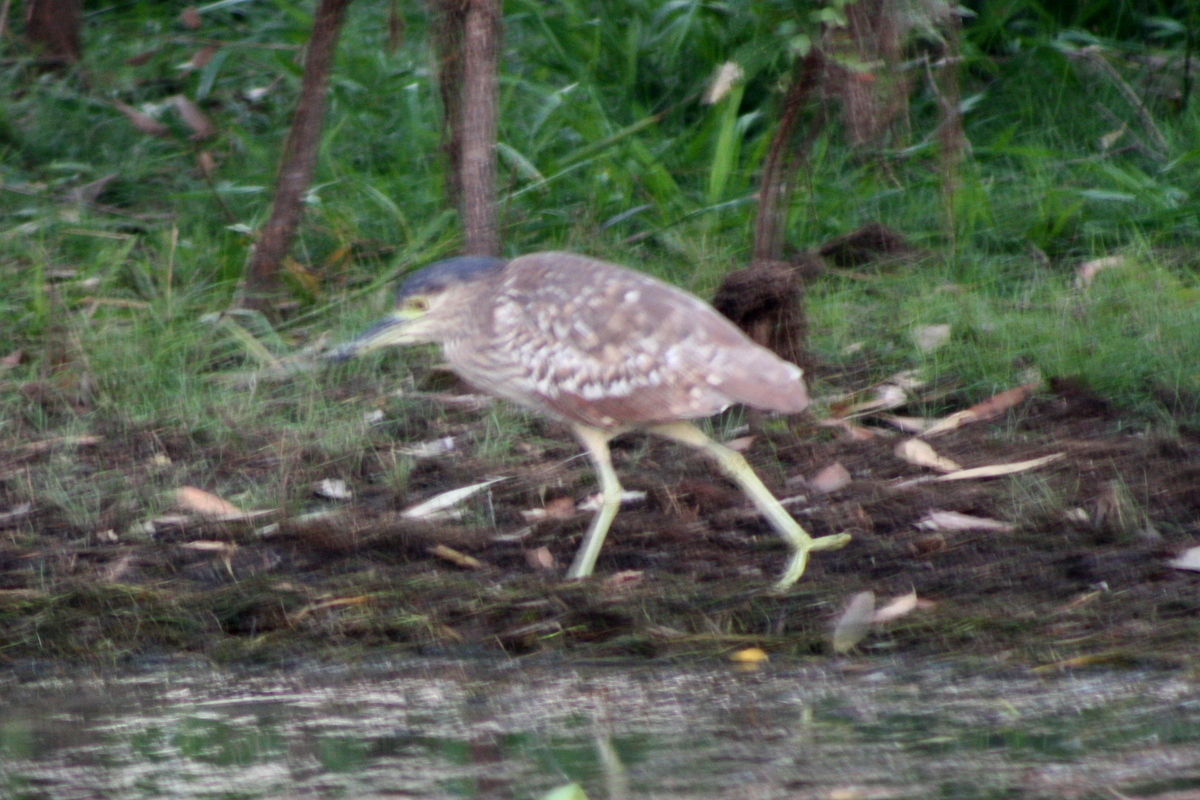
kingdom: Animalia
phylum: Chordata
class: Aves
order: Pelecaniformes
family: Ardeidae
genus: Nycticorax
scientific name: Nycticorax caledonicus
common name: Rufous night-heron
